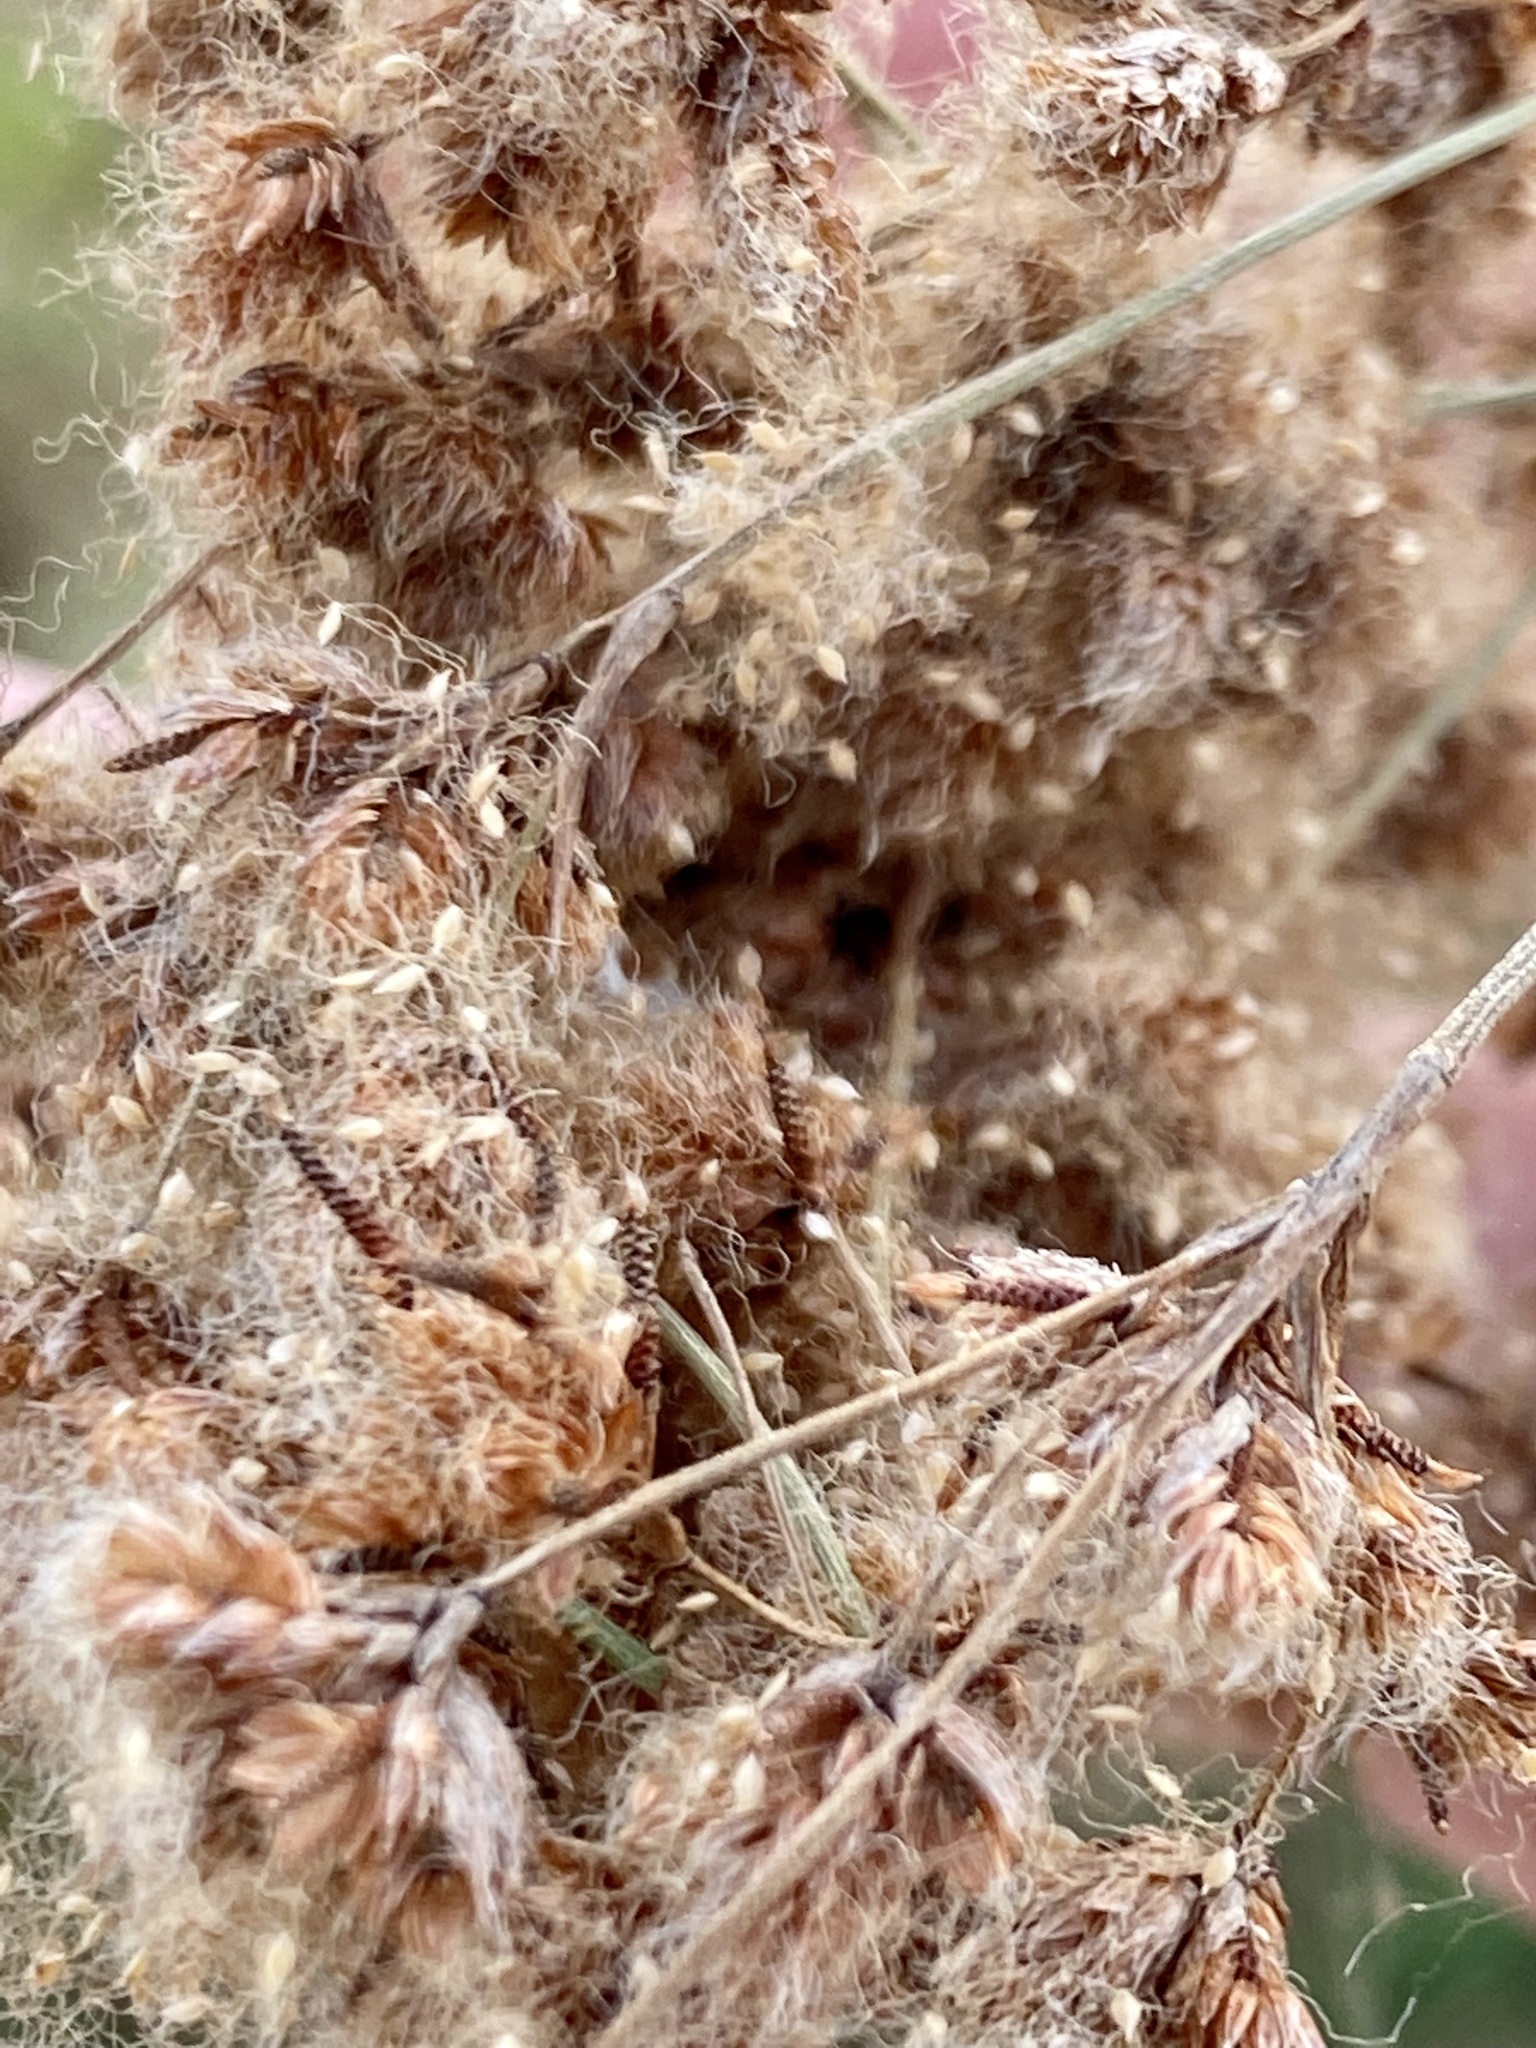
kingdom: Plantae
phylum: Tracheophyta
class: Liliopsida
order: Poales
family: Cyperaceae
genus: Scirpus
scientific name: Scirpus cyperinus
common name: Black-sheathed bulrush
